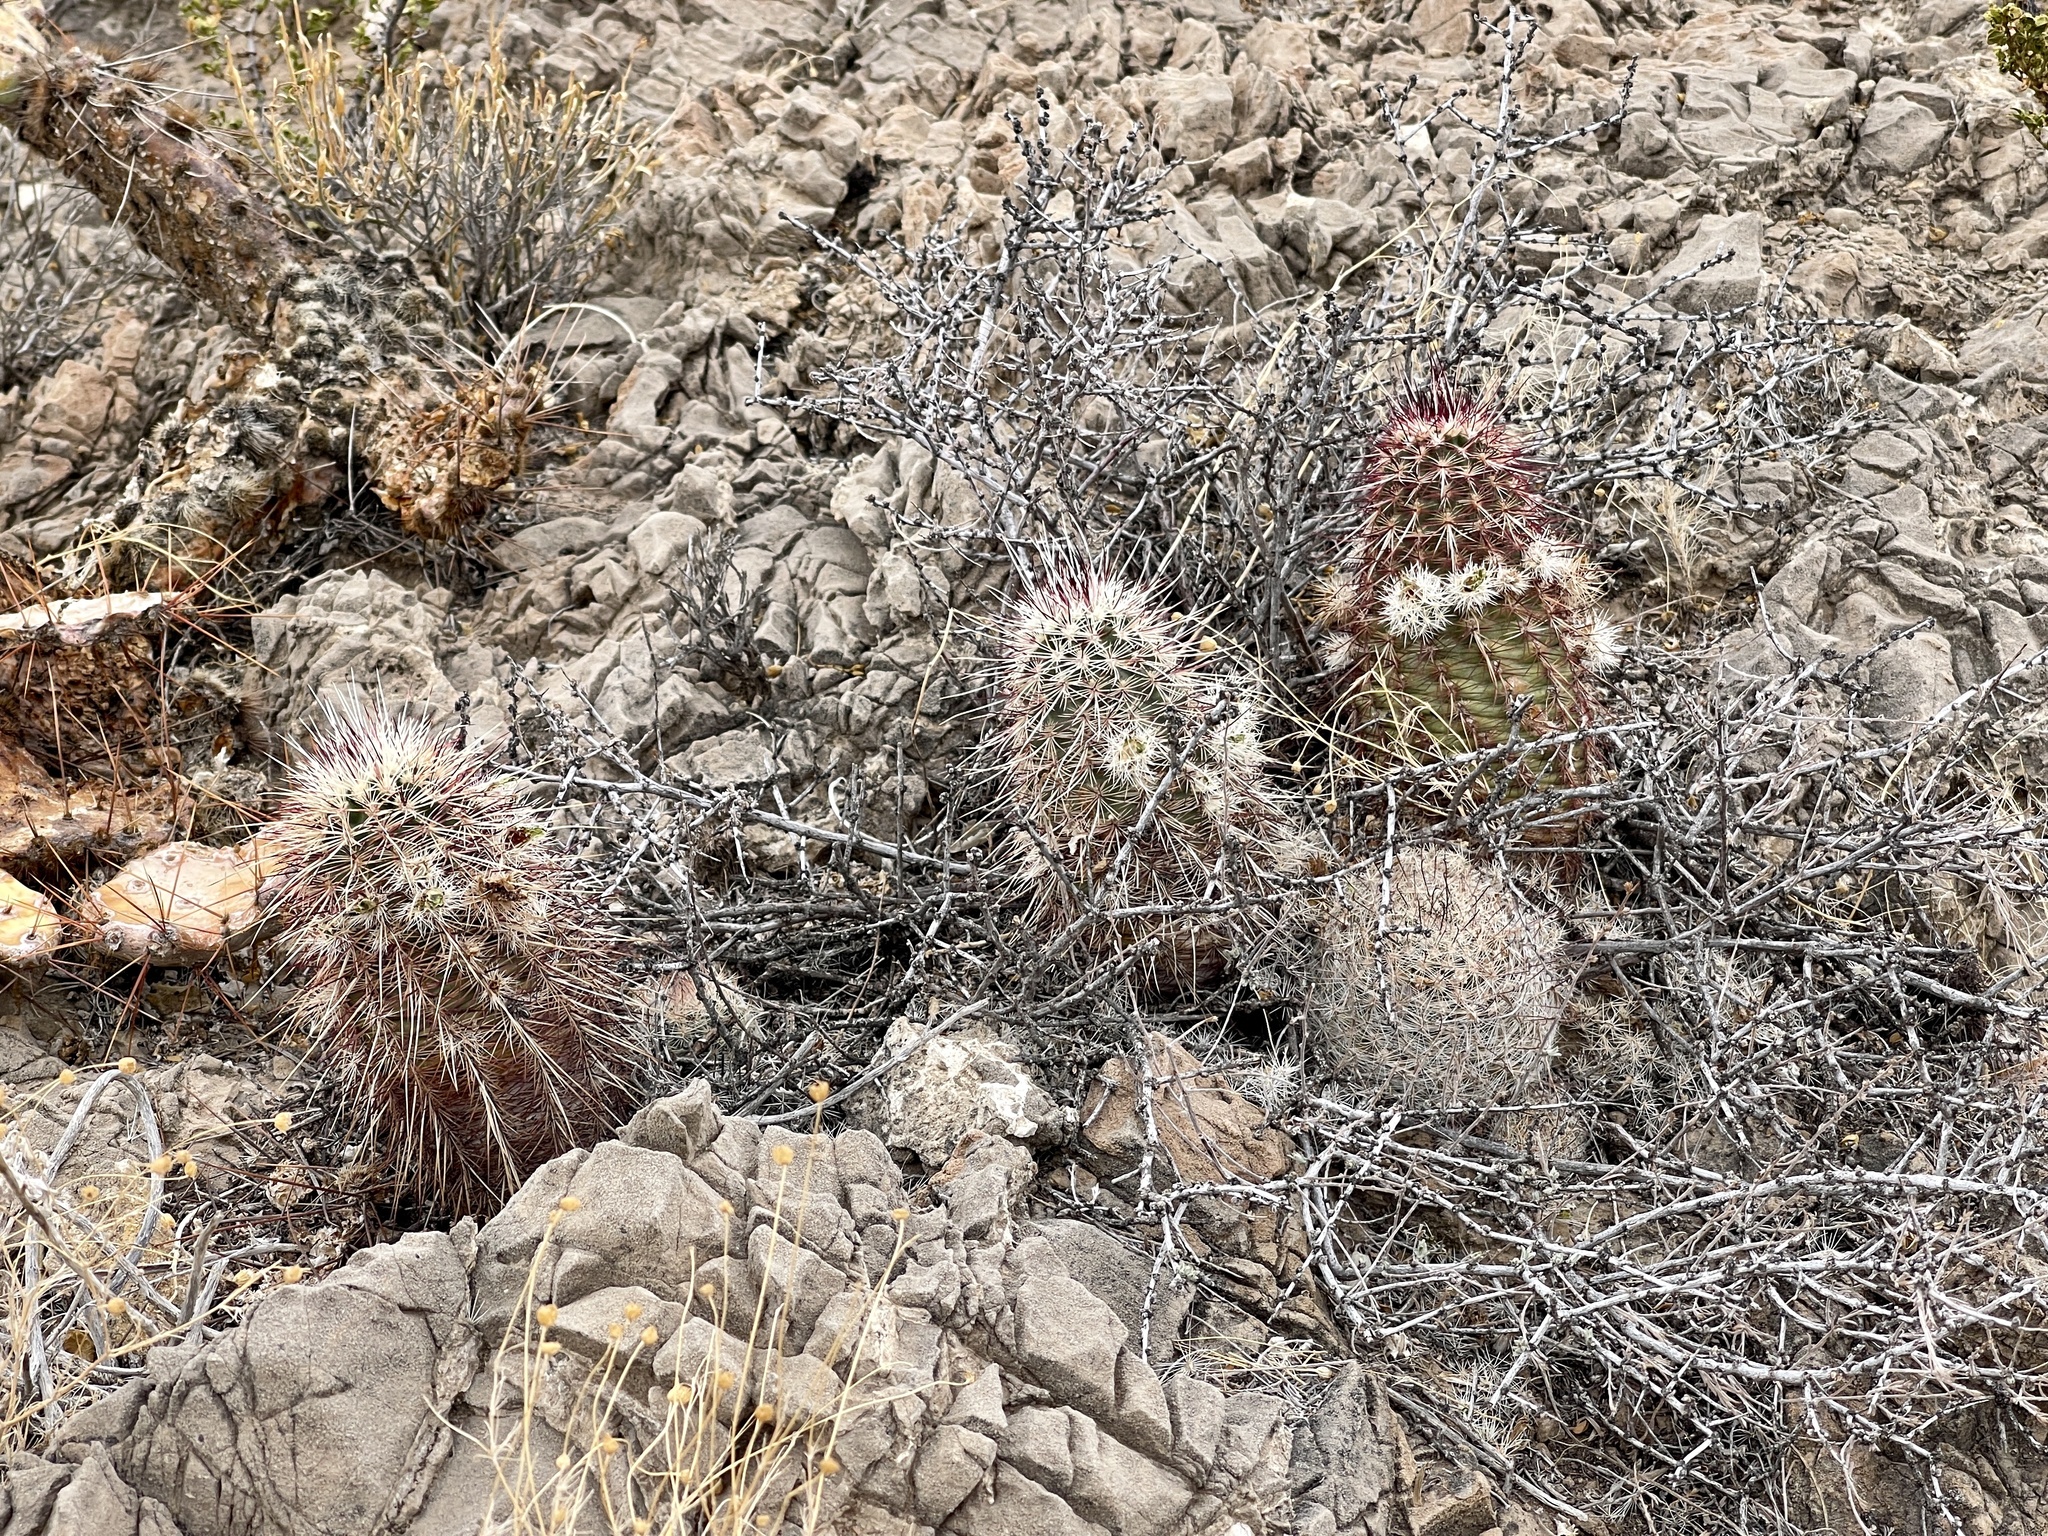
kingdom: Plantae
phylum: Tracheophyta
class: Magnoliopsida
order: Caryophyllales
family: Cactaceae
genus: Echinocereus
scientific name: Echinocereus viridiflorus
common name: Nylon hedgehog cactus
